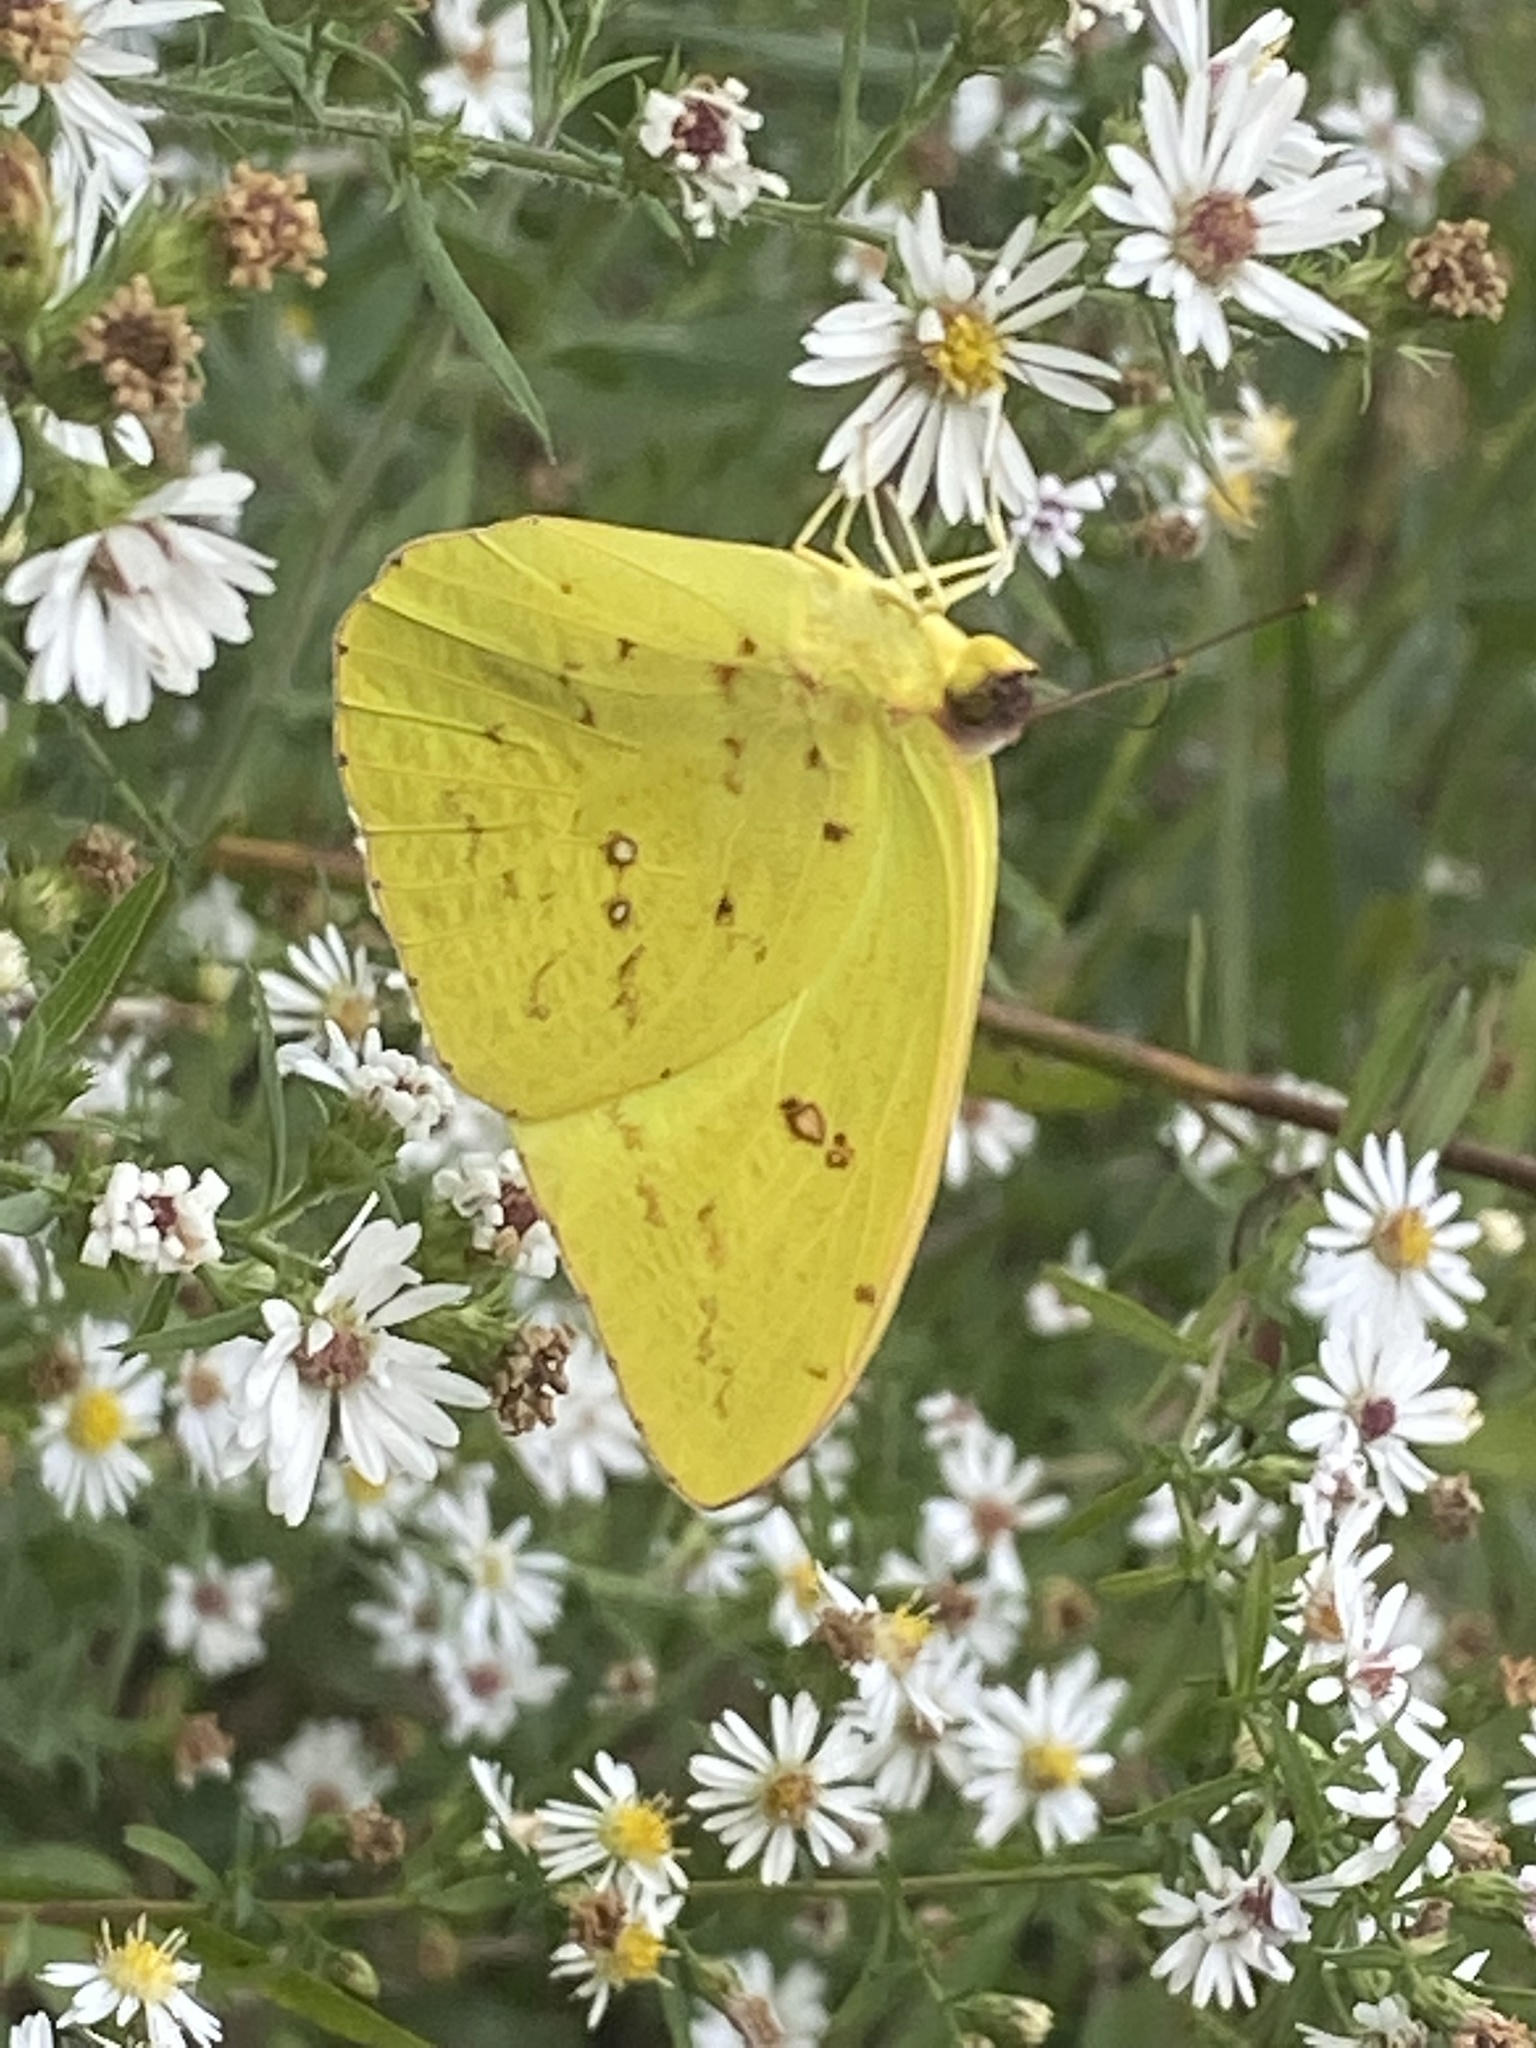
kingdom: Animalia
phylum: Arthropoda
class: Insecta
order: Lepidoptera
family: Pieridae
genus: Phoebis
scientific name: Phoebis sennae
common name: Cloudless sulphur
